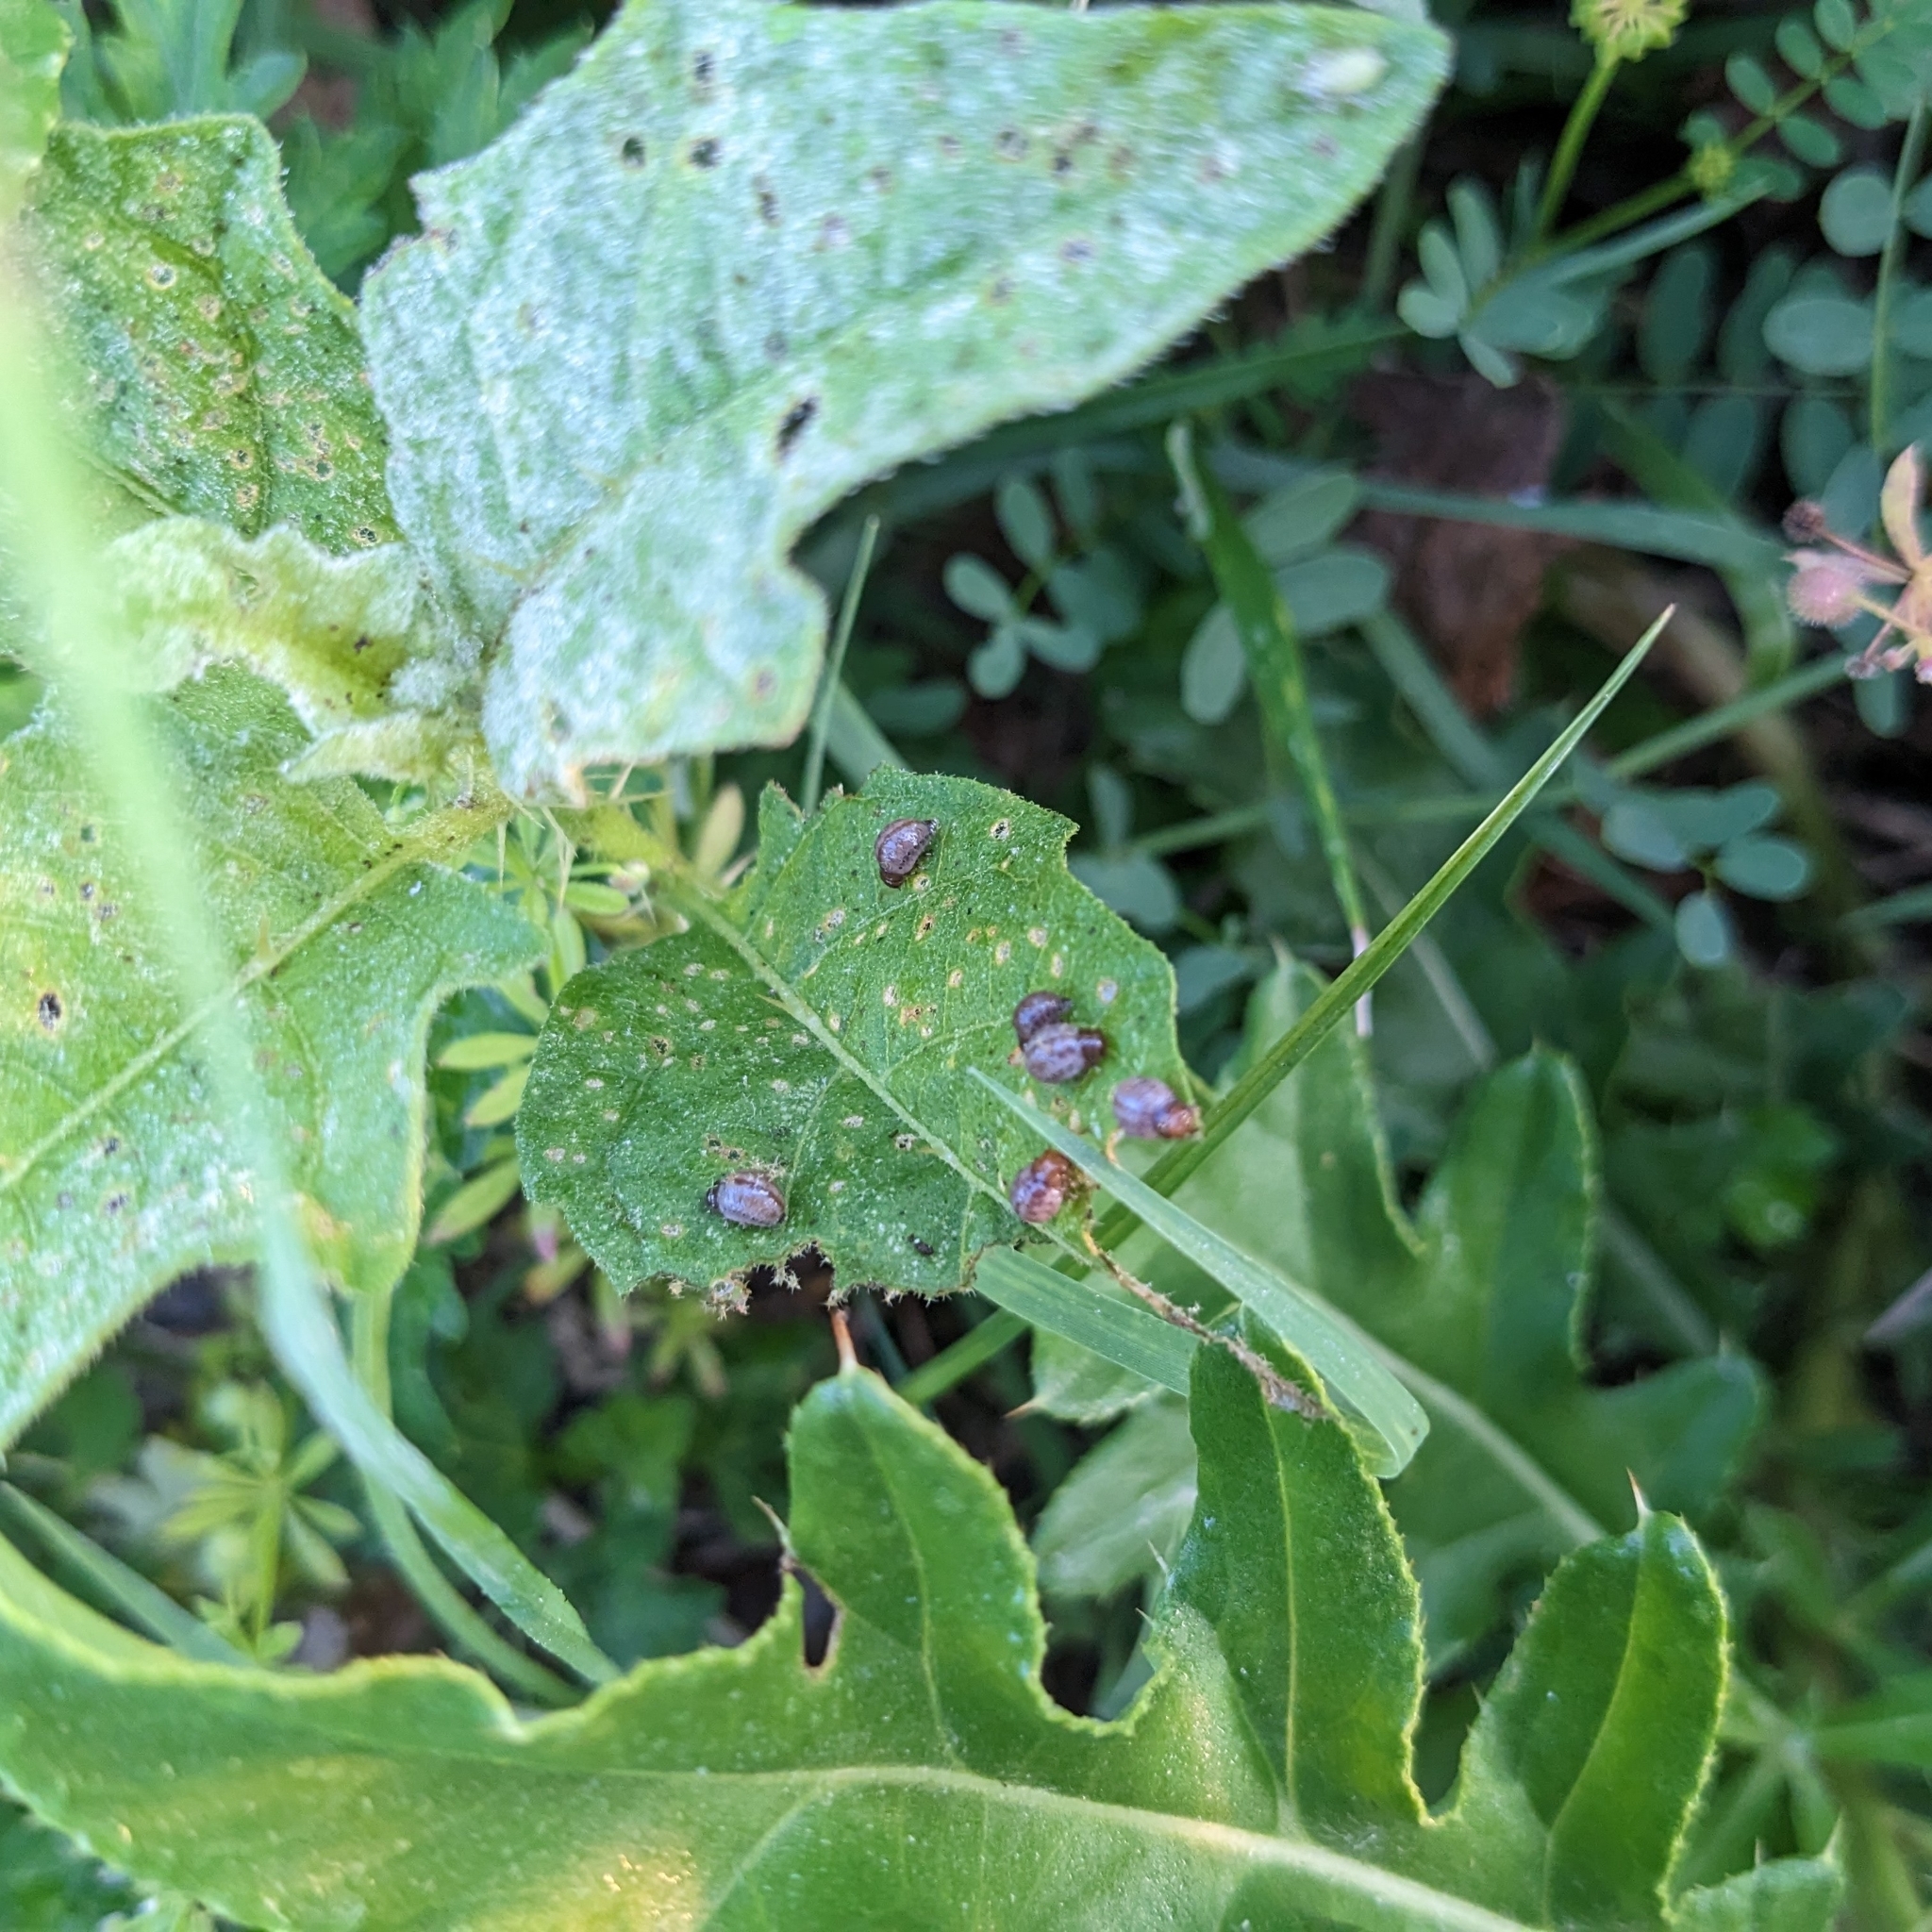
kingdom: Animalia
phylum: Arthropoda
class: Insecta
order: Coleoptera
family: Chrysomelidae
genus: Leptinotarsa
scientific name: Leptinotarsa juncta
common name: False potato beetle
